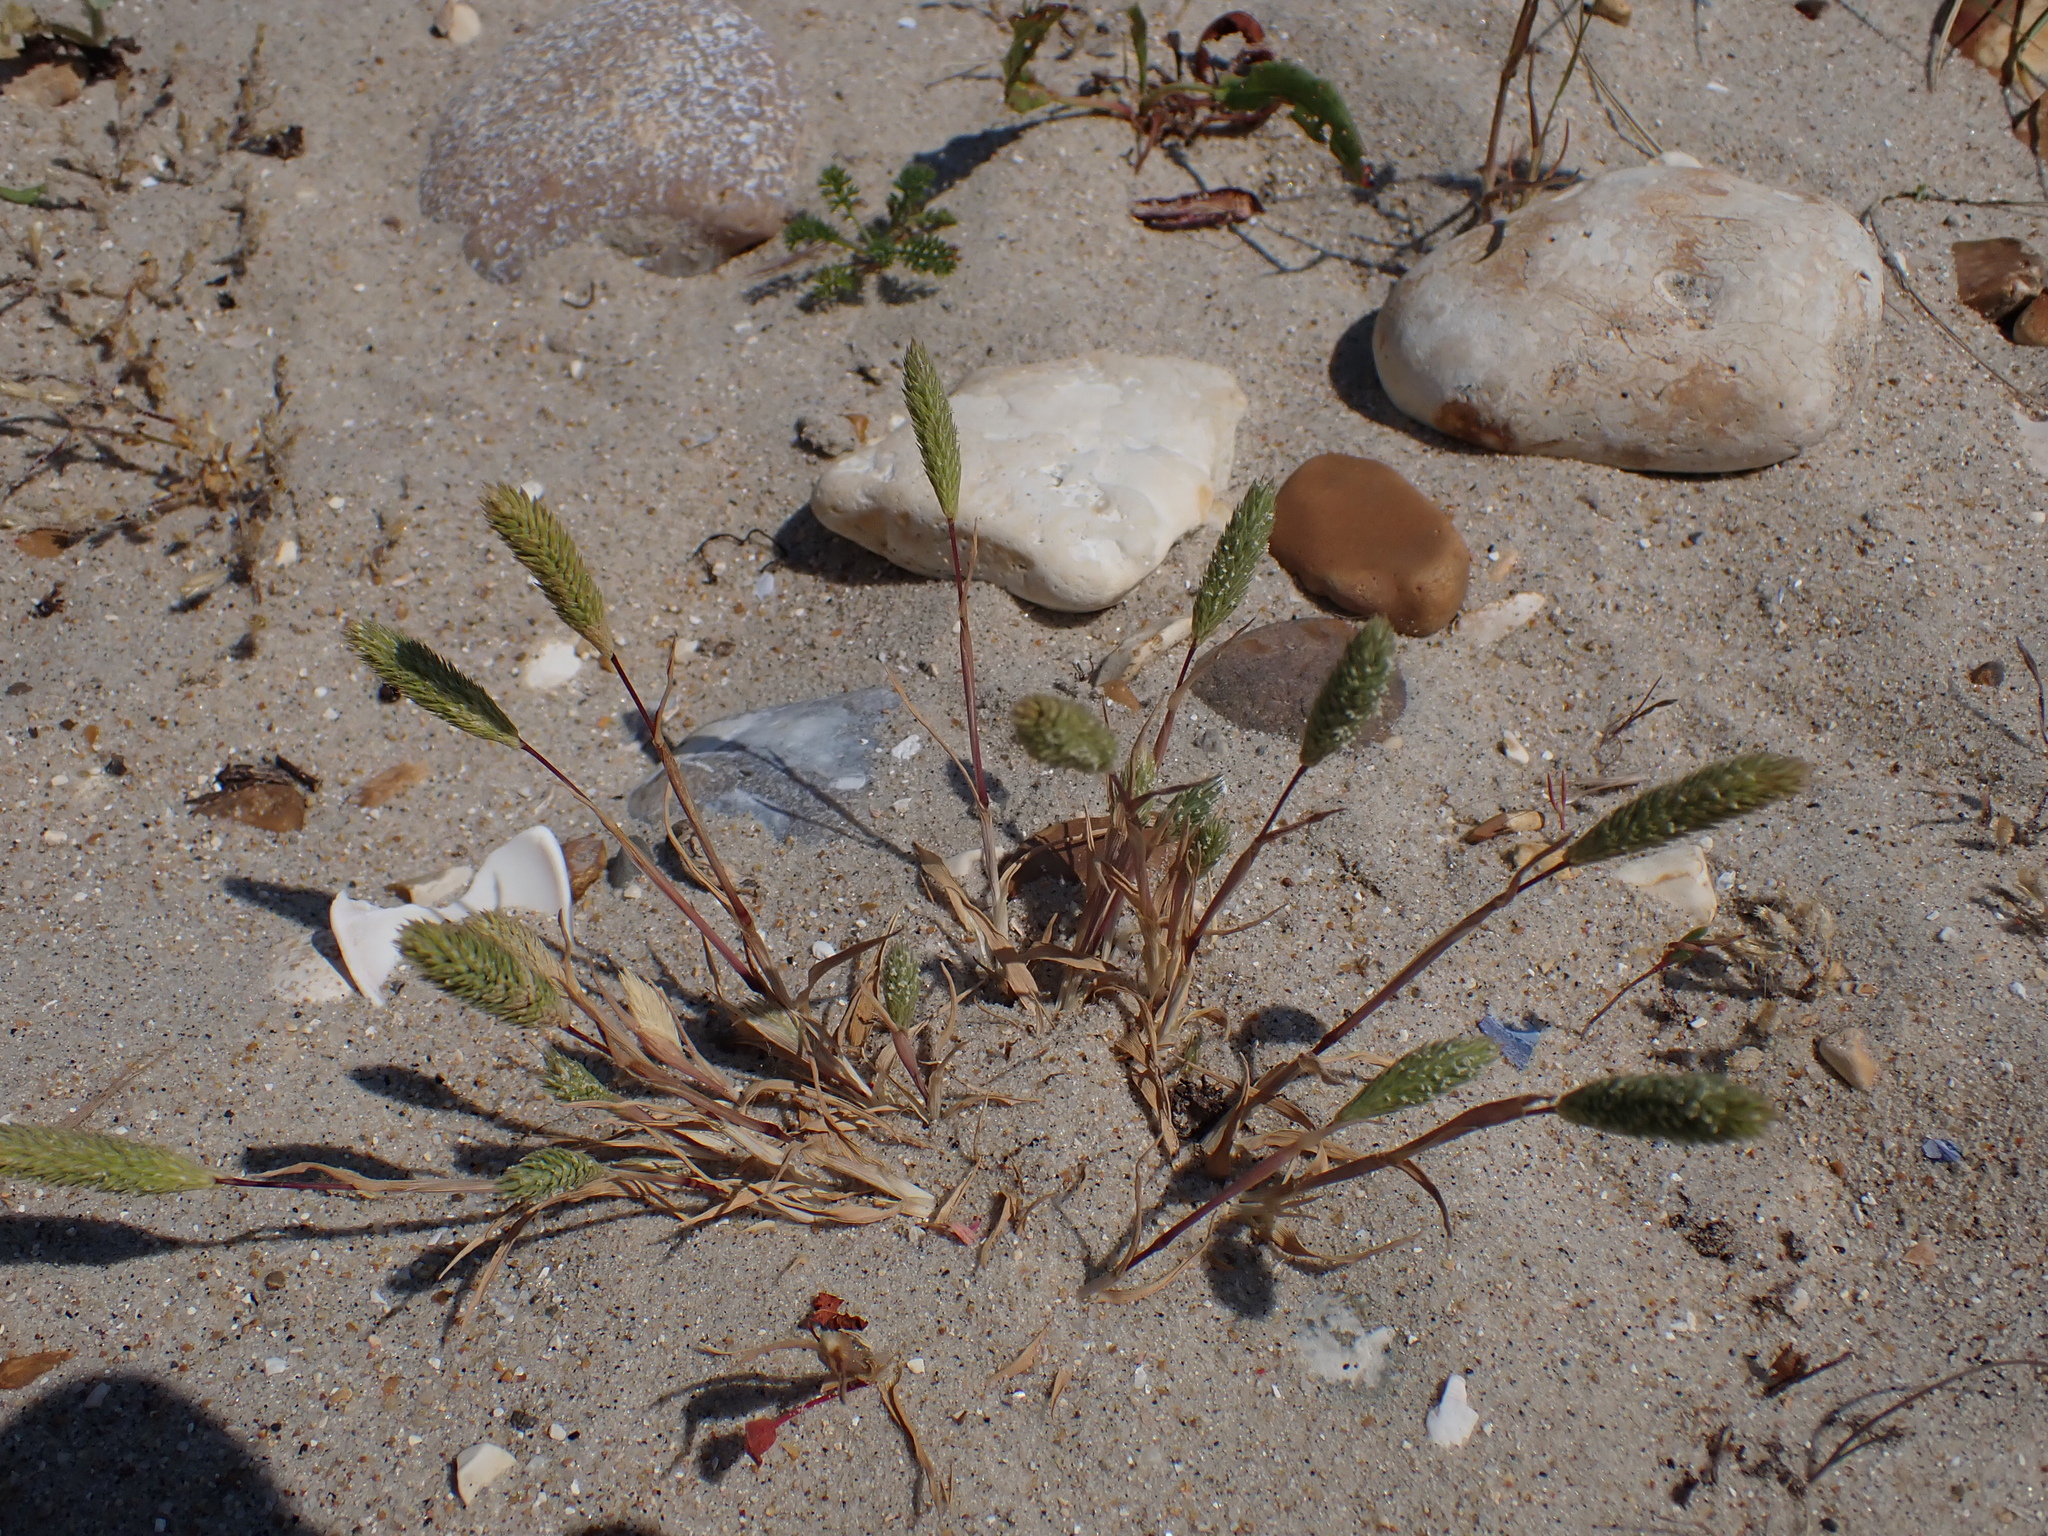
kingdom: Plantae
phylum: Tracheophyta
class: Liliopsida
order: Poales
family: Poaceae
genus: Phleum
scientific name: Phleum arenarium
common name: Sand cat's-tail
